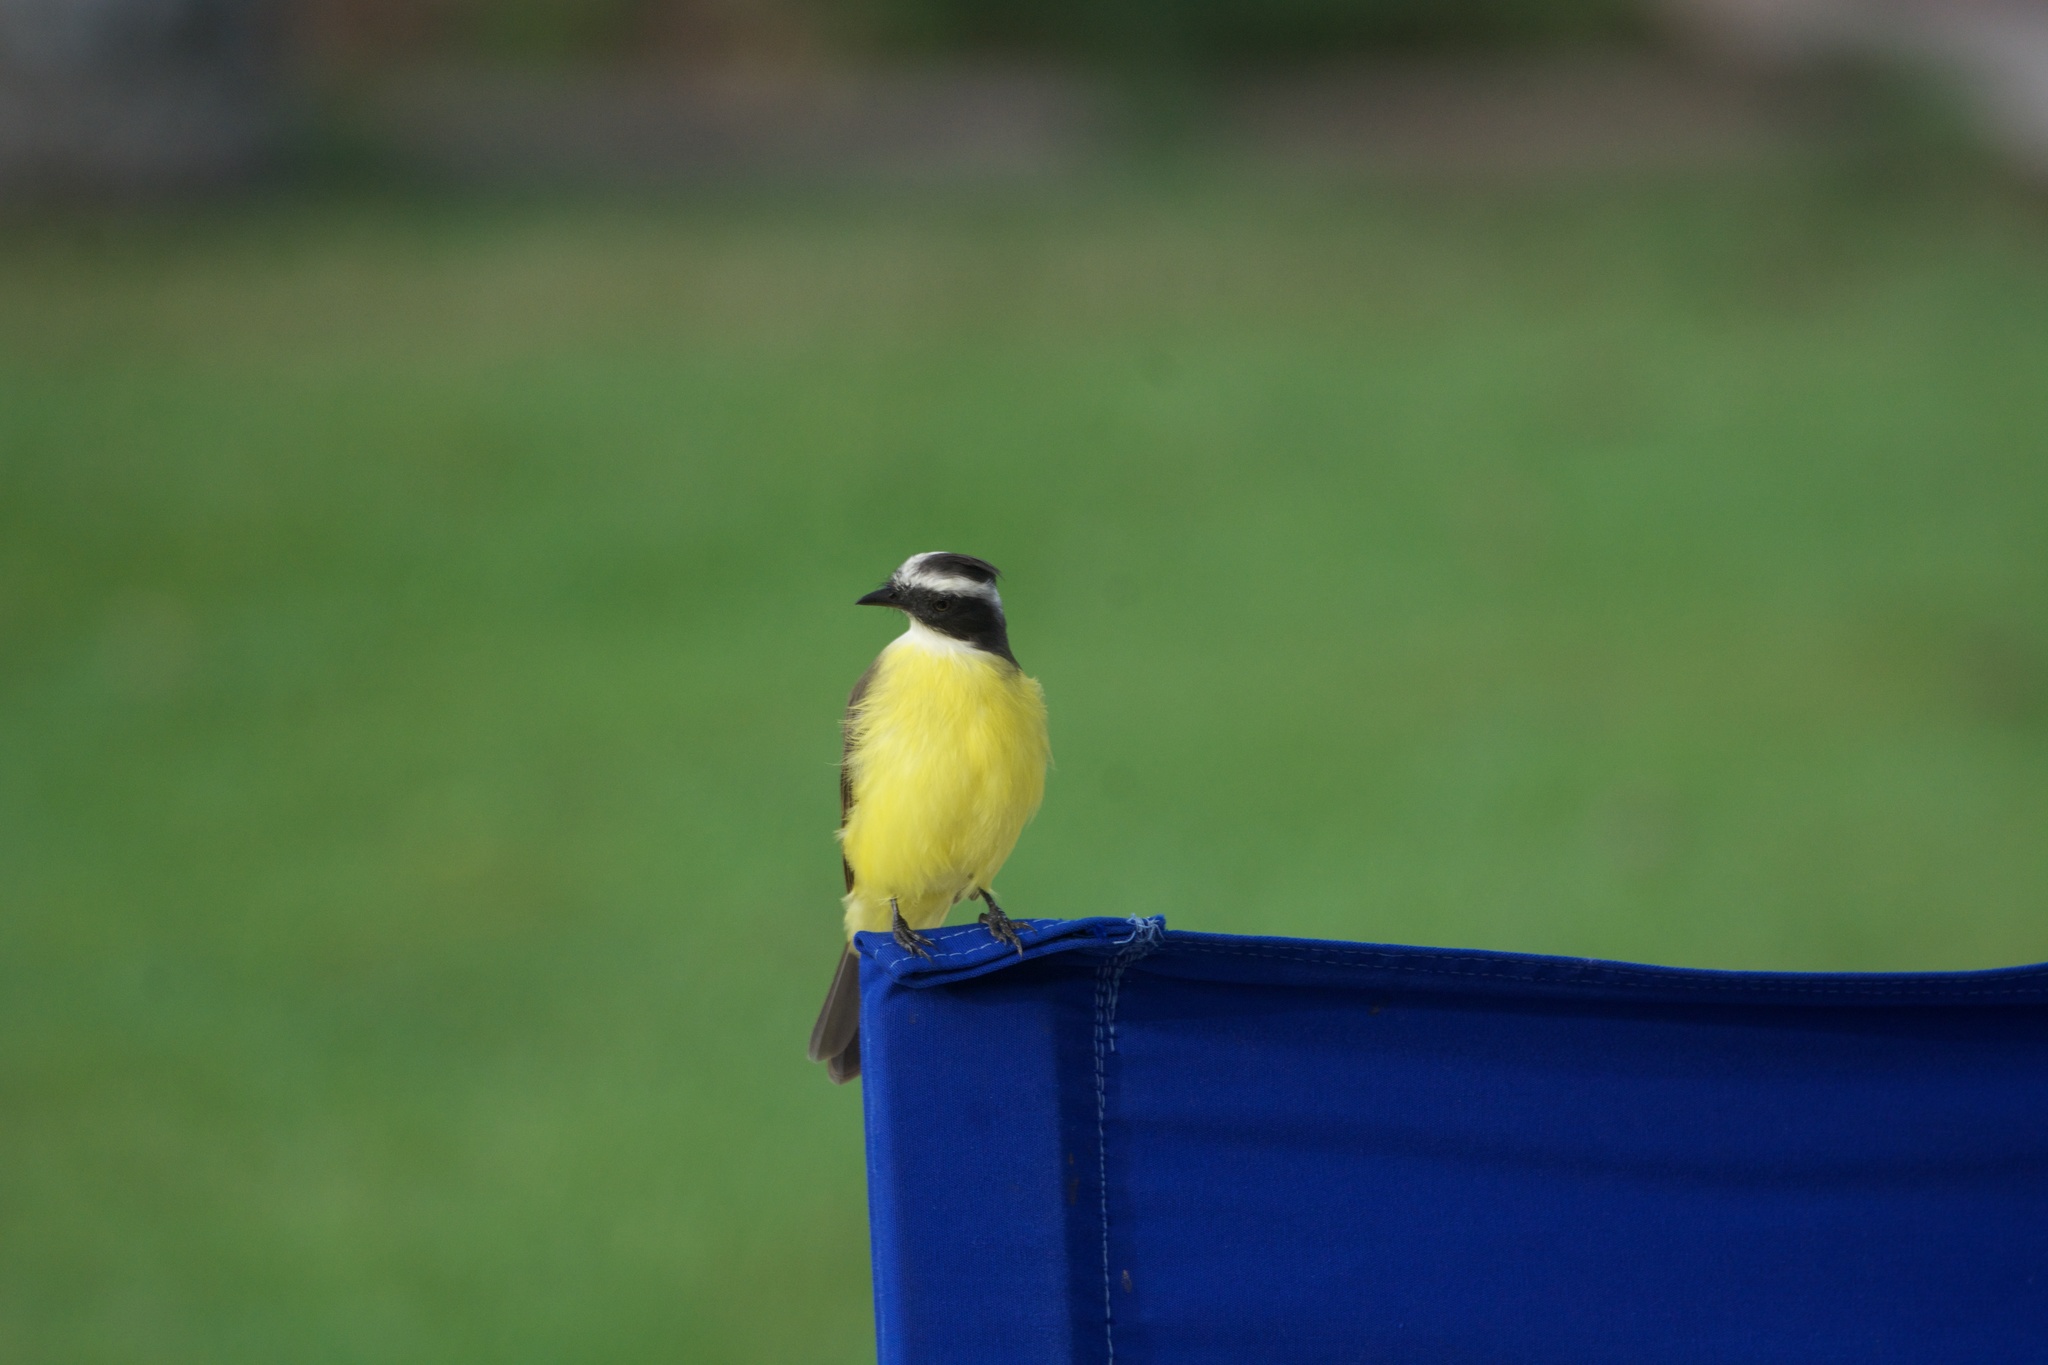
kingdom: Animalia
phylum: Chordata
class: Aves
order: Passeriformes
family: Tyrannidae
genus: Myiozetetes
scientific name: Myiozetetes similis
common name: Social flycatcher
